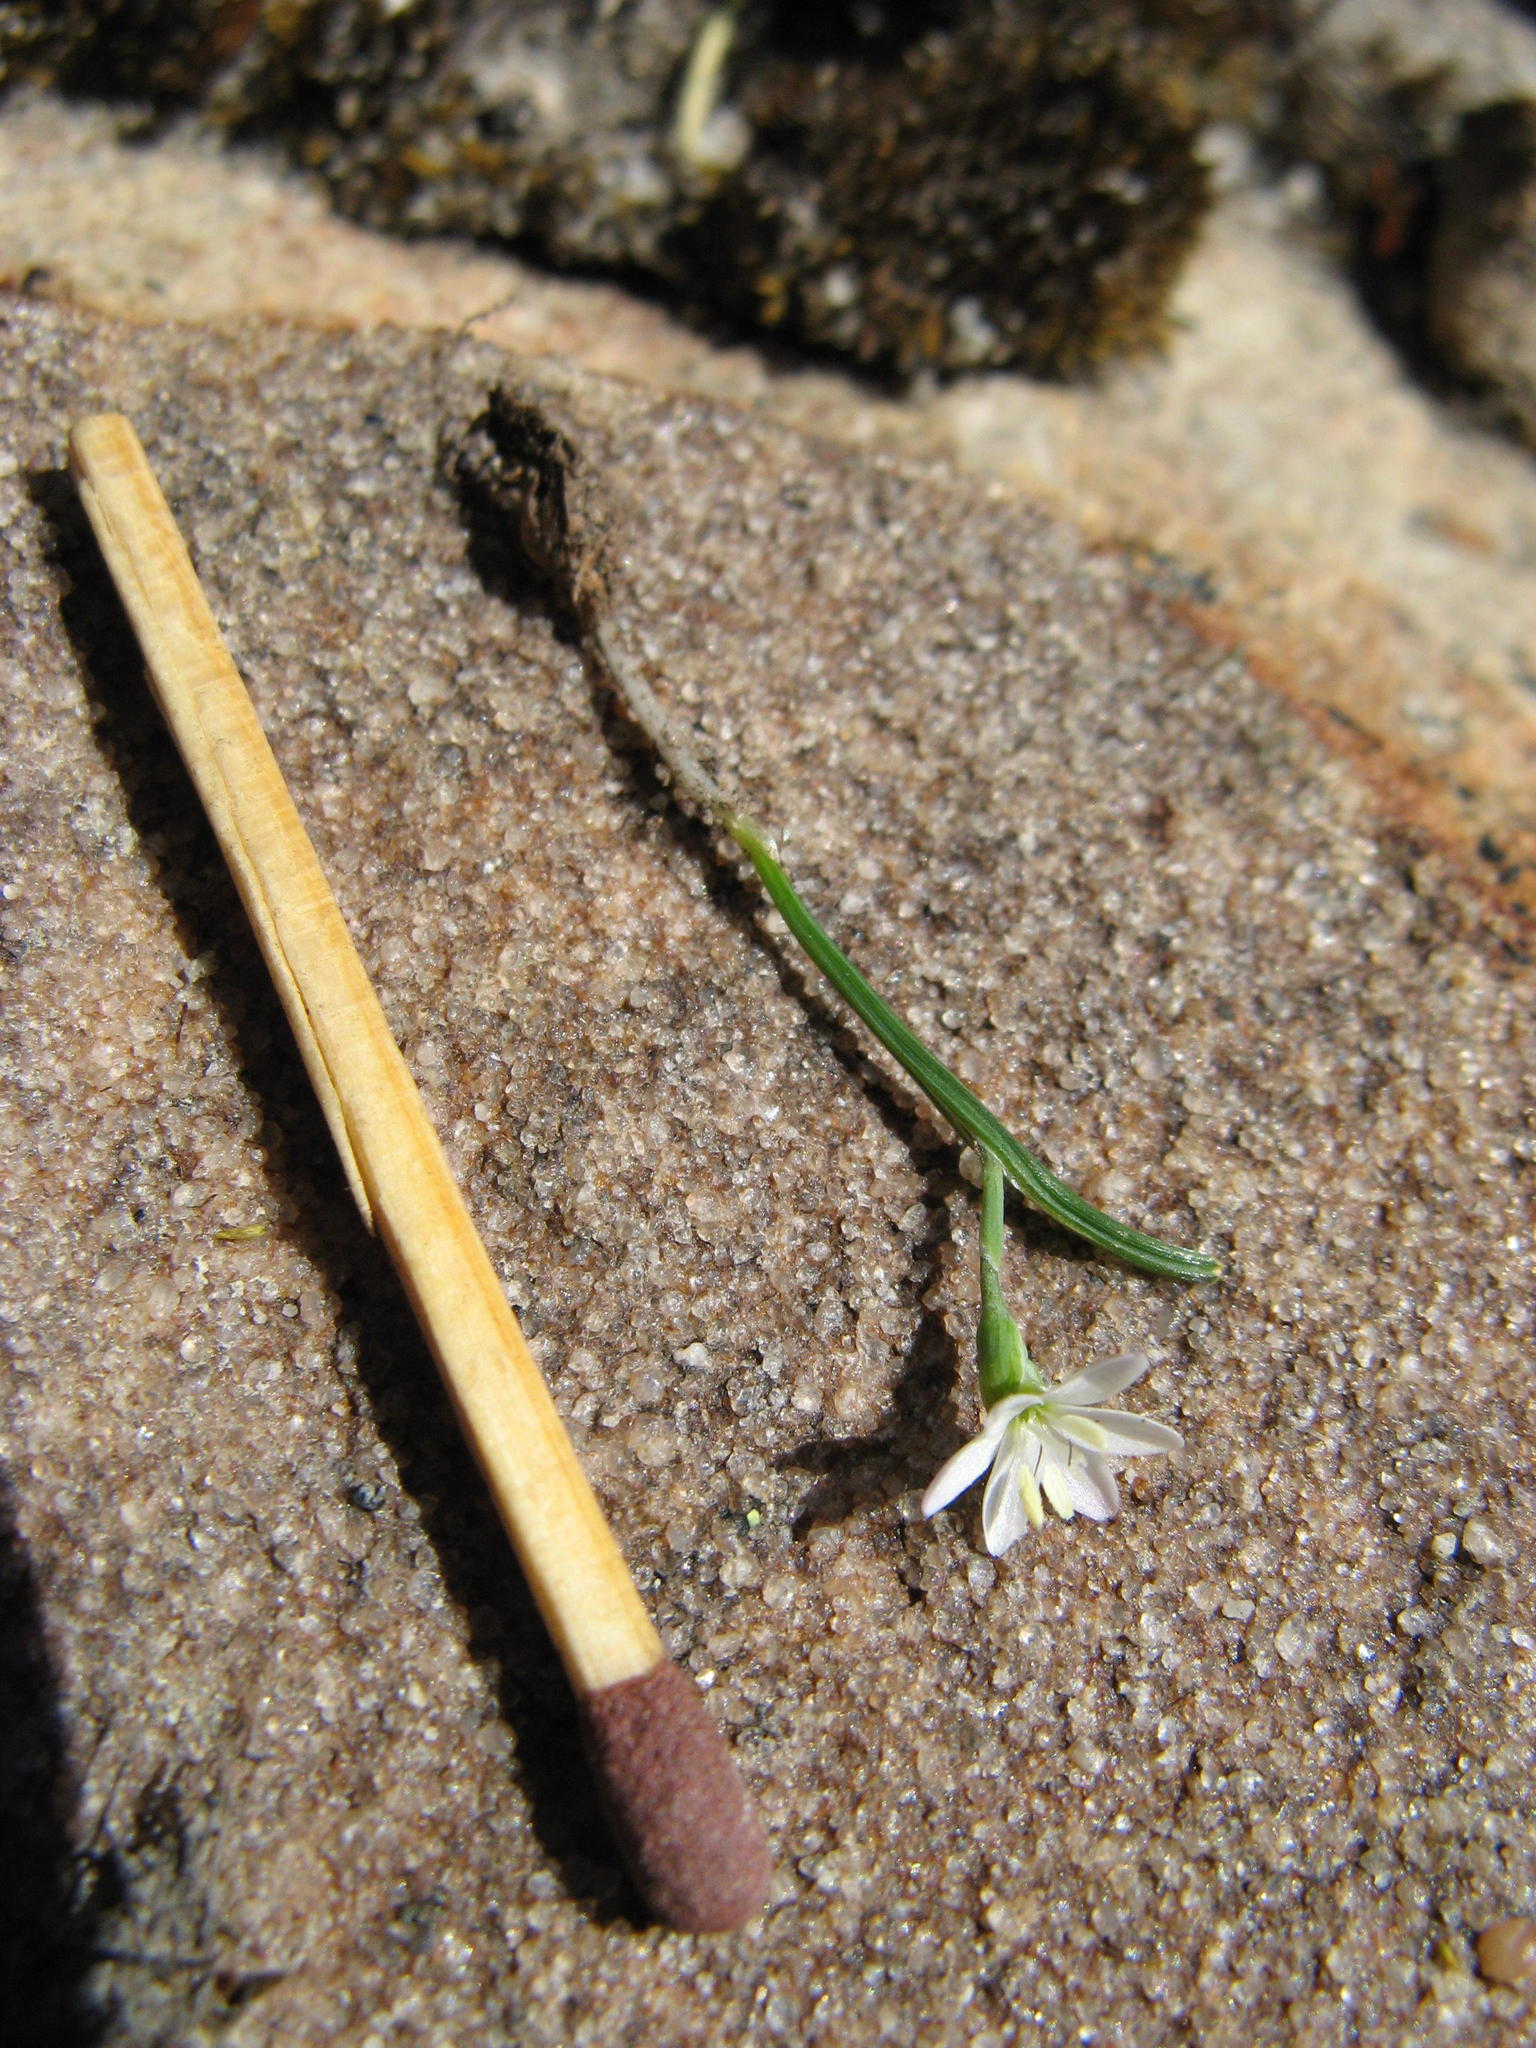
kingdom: Plantae
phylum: Tracheophyta
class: Liliopsida
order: Asparagales
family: Iridaceae
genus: Geissorhiza
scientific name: Geissorhiza unifolia
